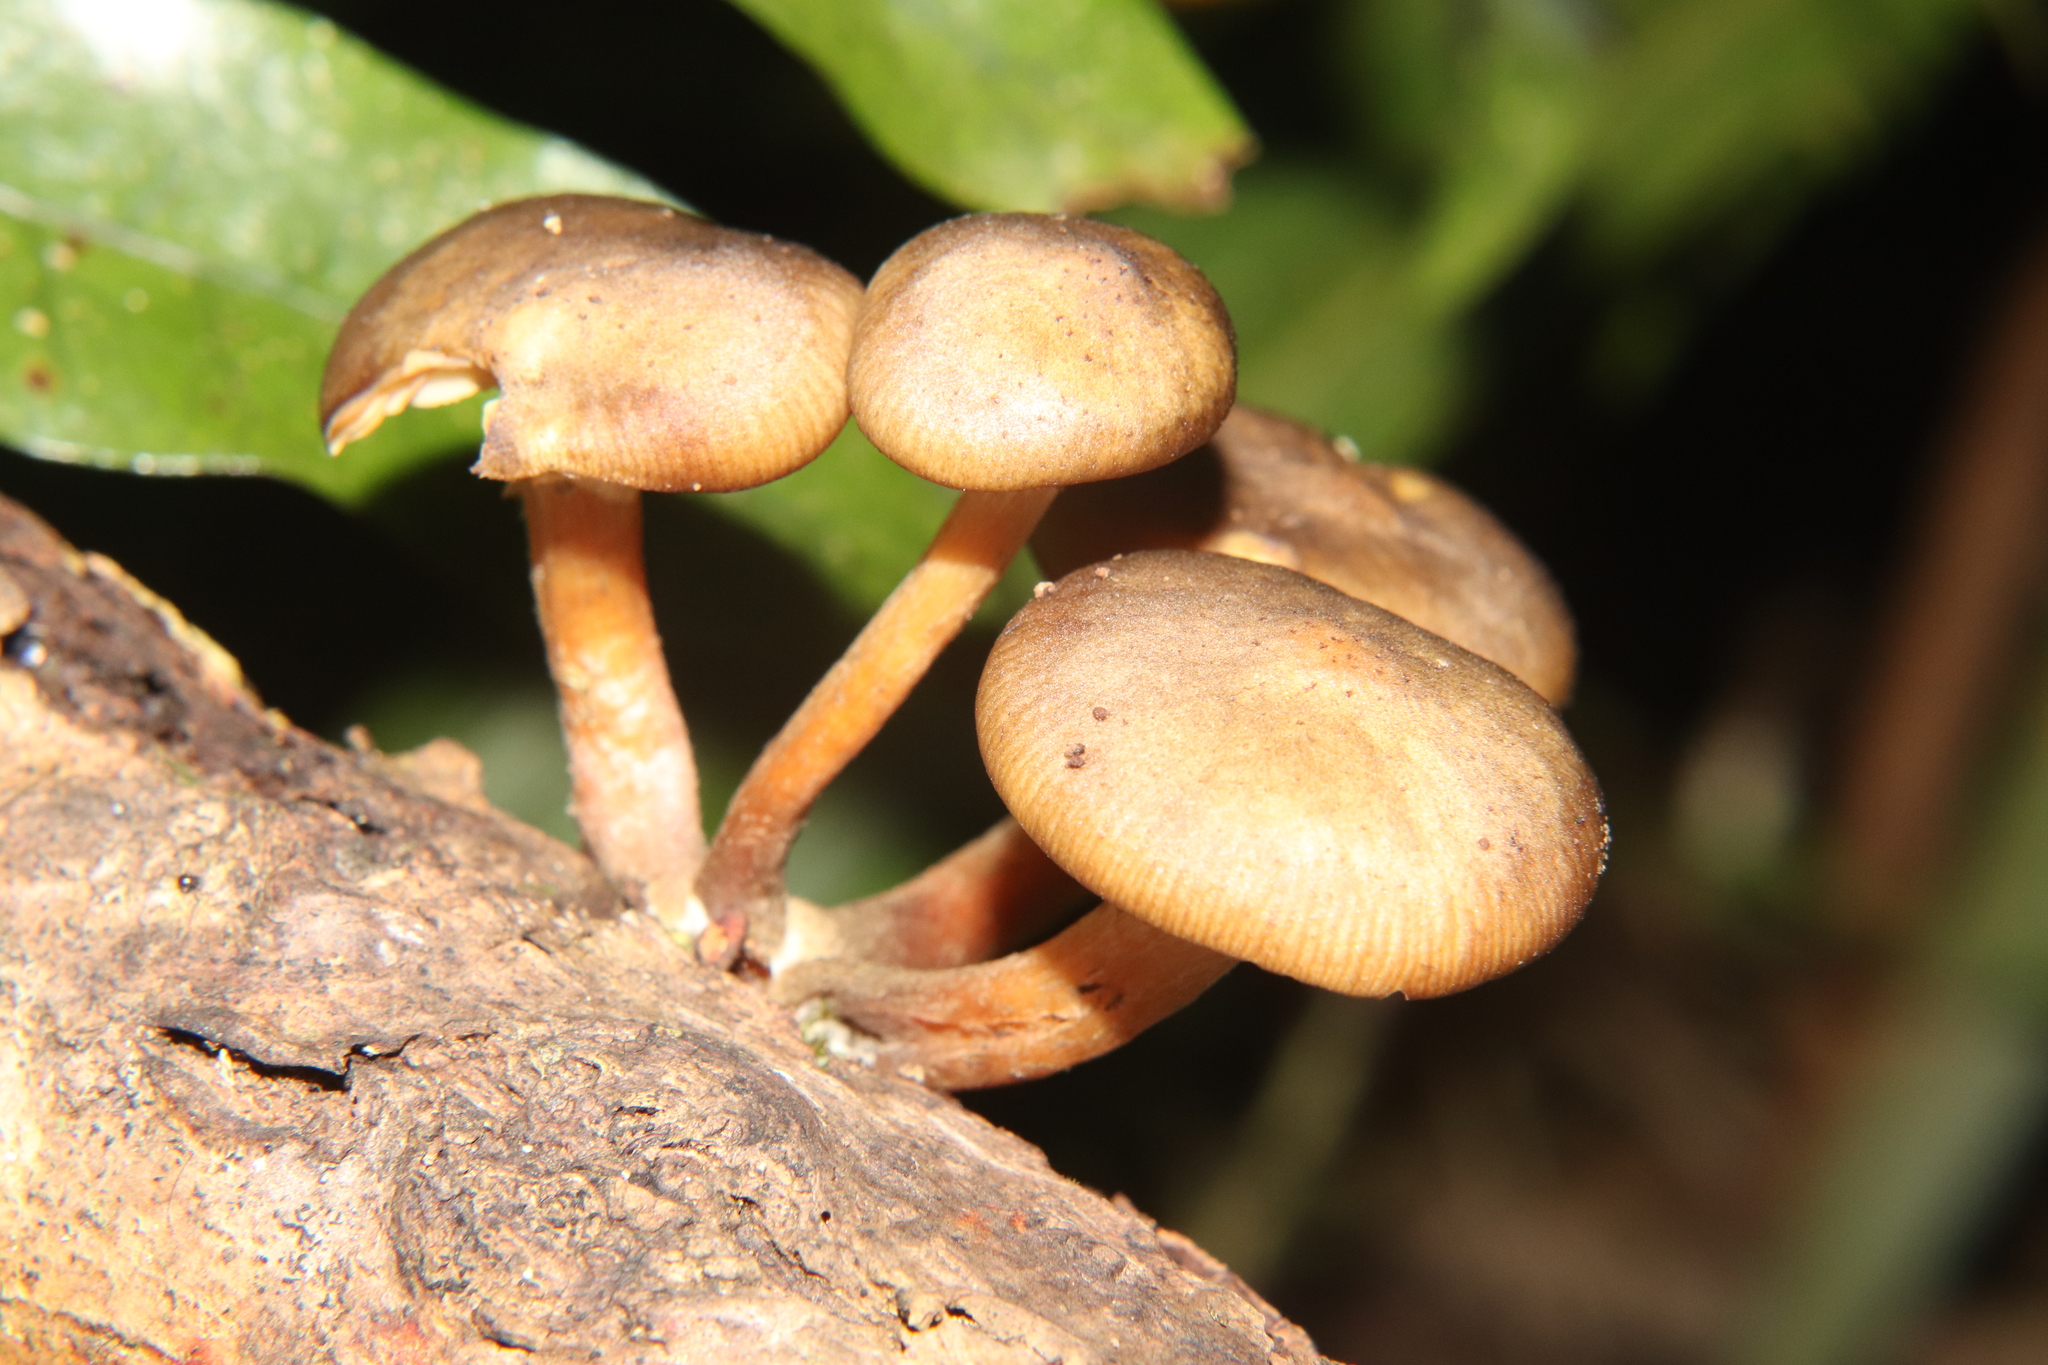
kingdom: Fungi
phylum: Basidiomycota
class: Agaricomycetes
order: Agaricales
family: Physalacriaceae
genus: Armillaria
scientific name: Armillaria novae-zelandiae
